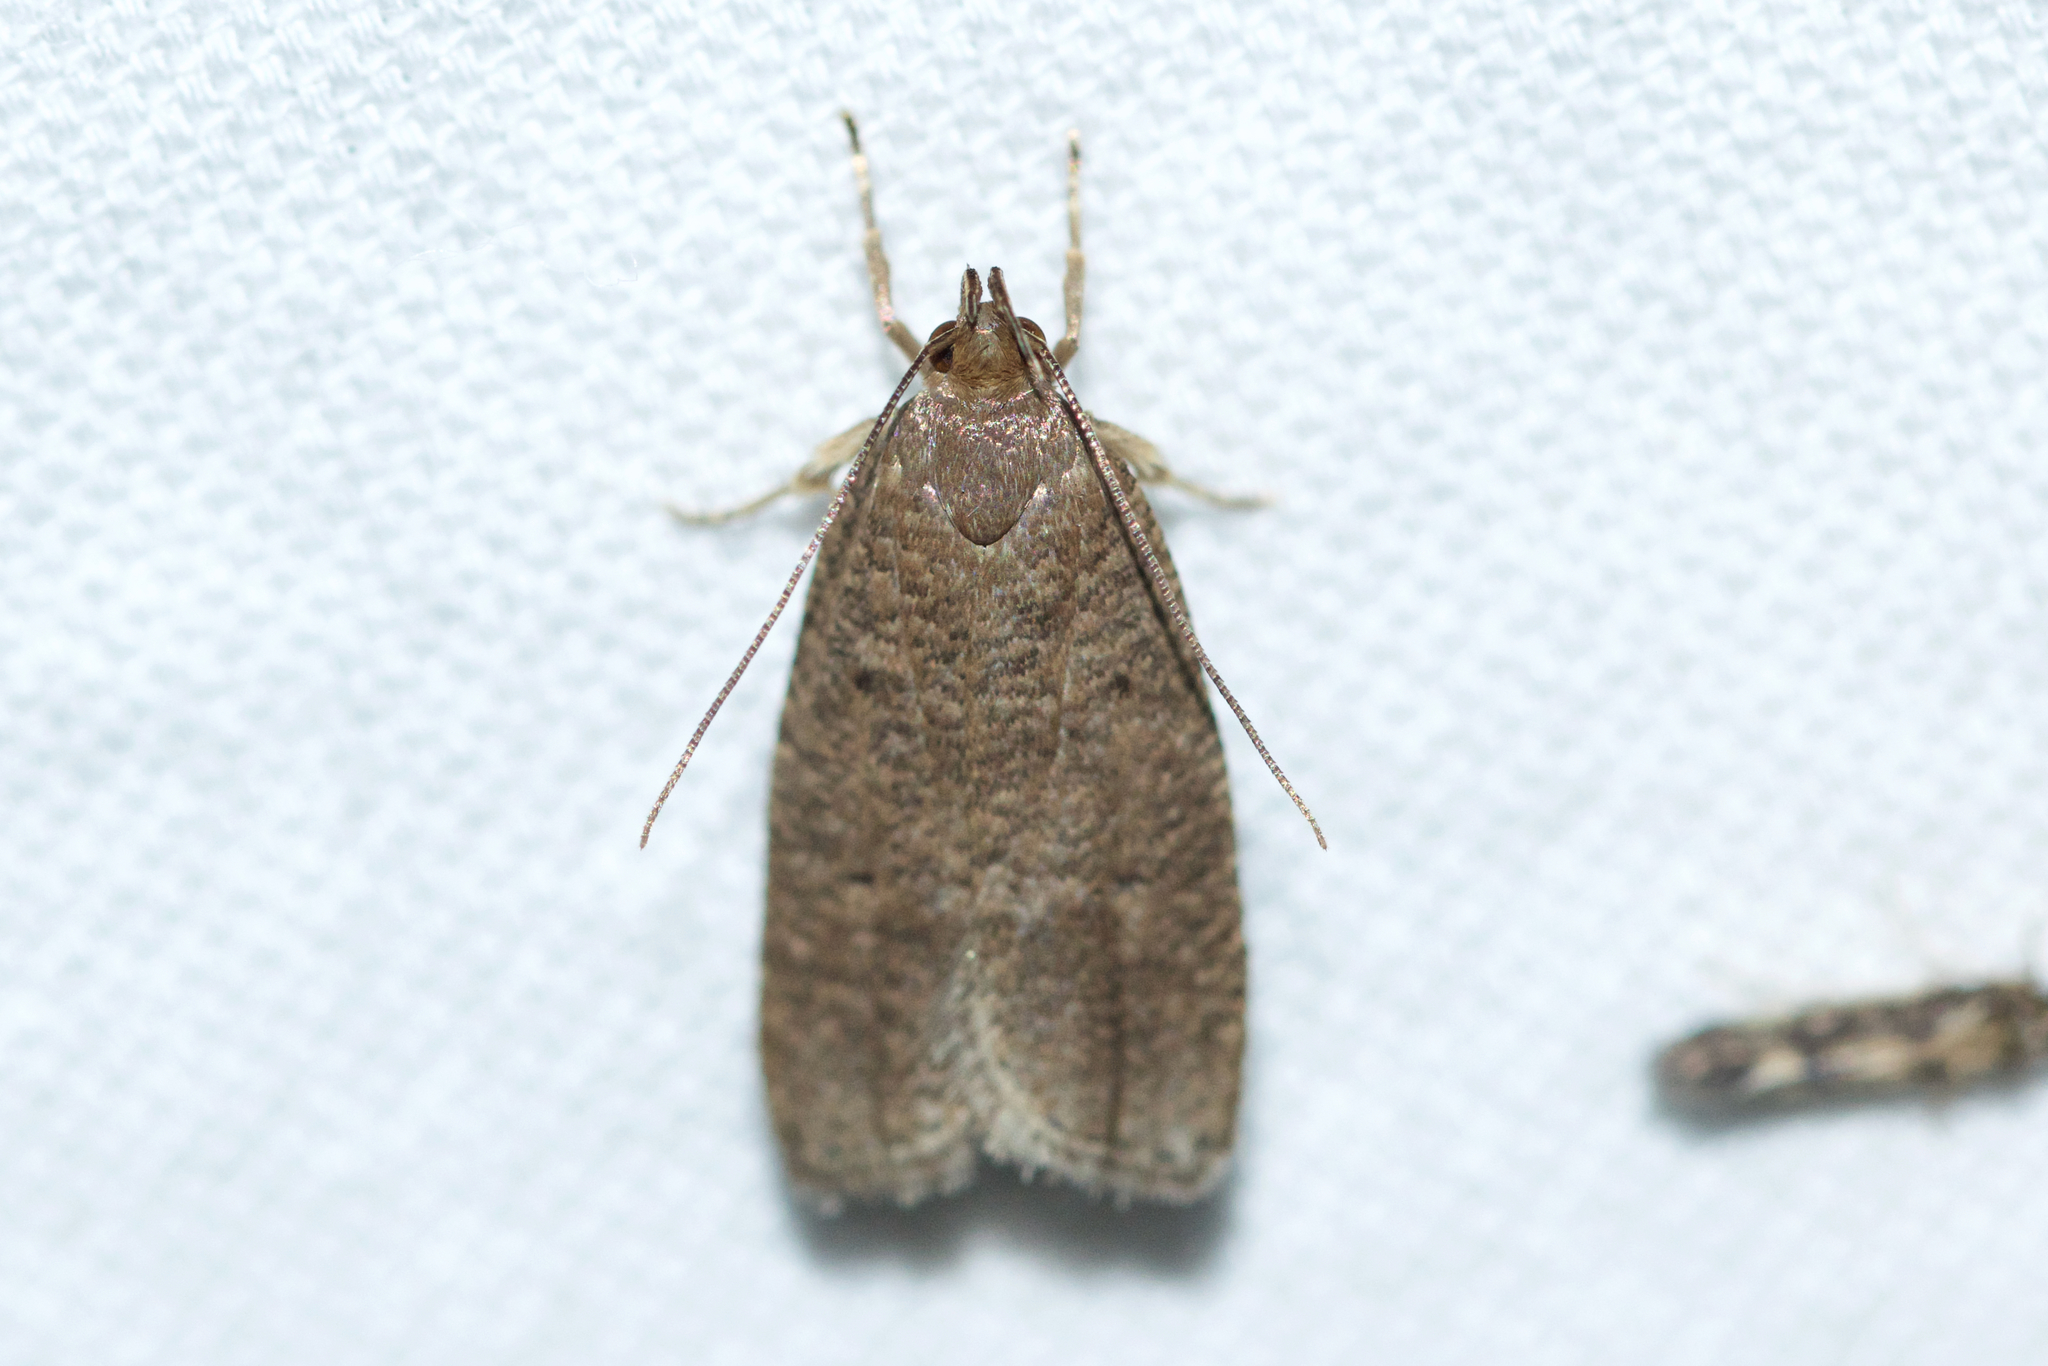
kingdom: Animalia
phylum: Arthropoda
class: Insecta
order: Lepidoptera
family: Depressariidae
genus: Psilocorsis
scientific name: Psilocorsis reflexella
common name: Dotted leaftier moth
